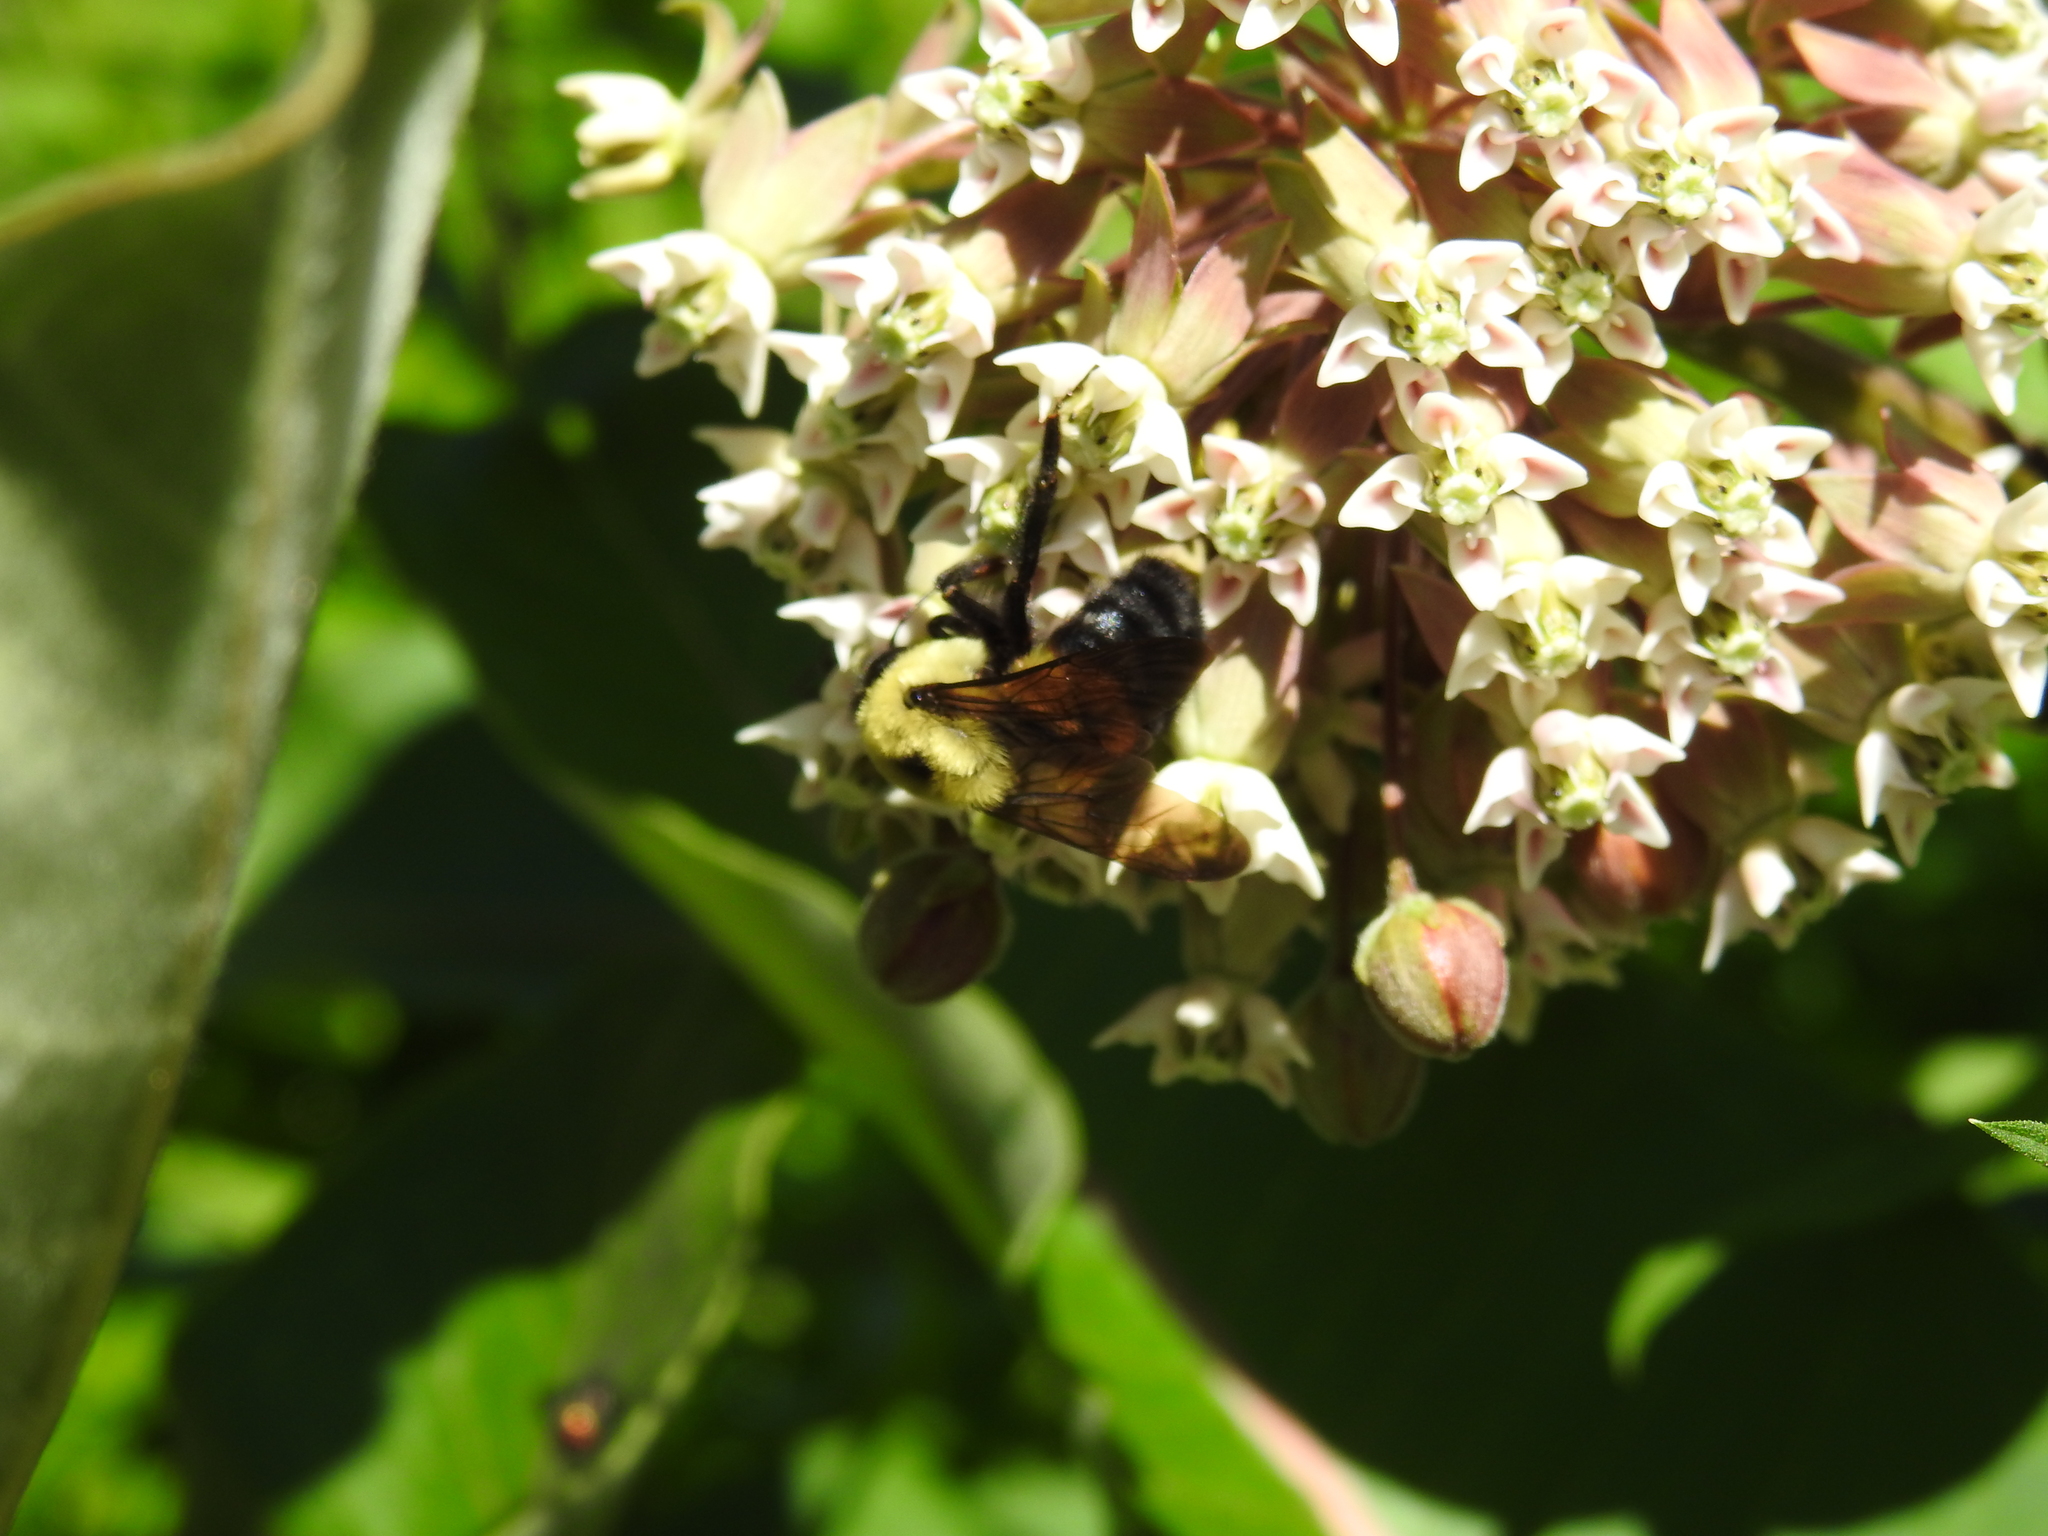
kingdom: Animalia
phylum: Arthropoda
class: Insecta
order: Hymenoptera
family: Apidae
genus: Bombus
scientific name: Bombus griseocollis
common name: Brown-belted bumble bee
